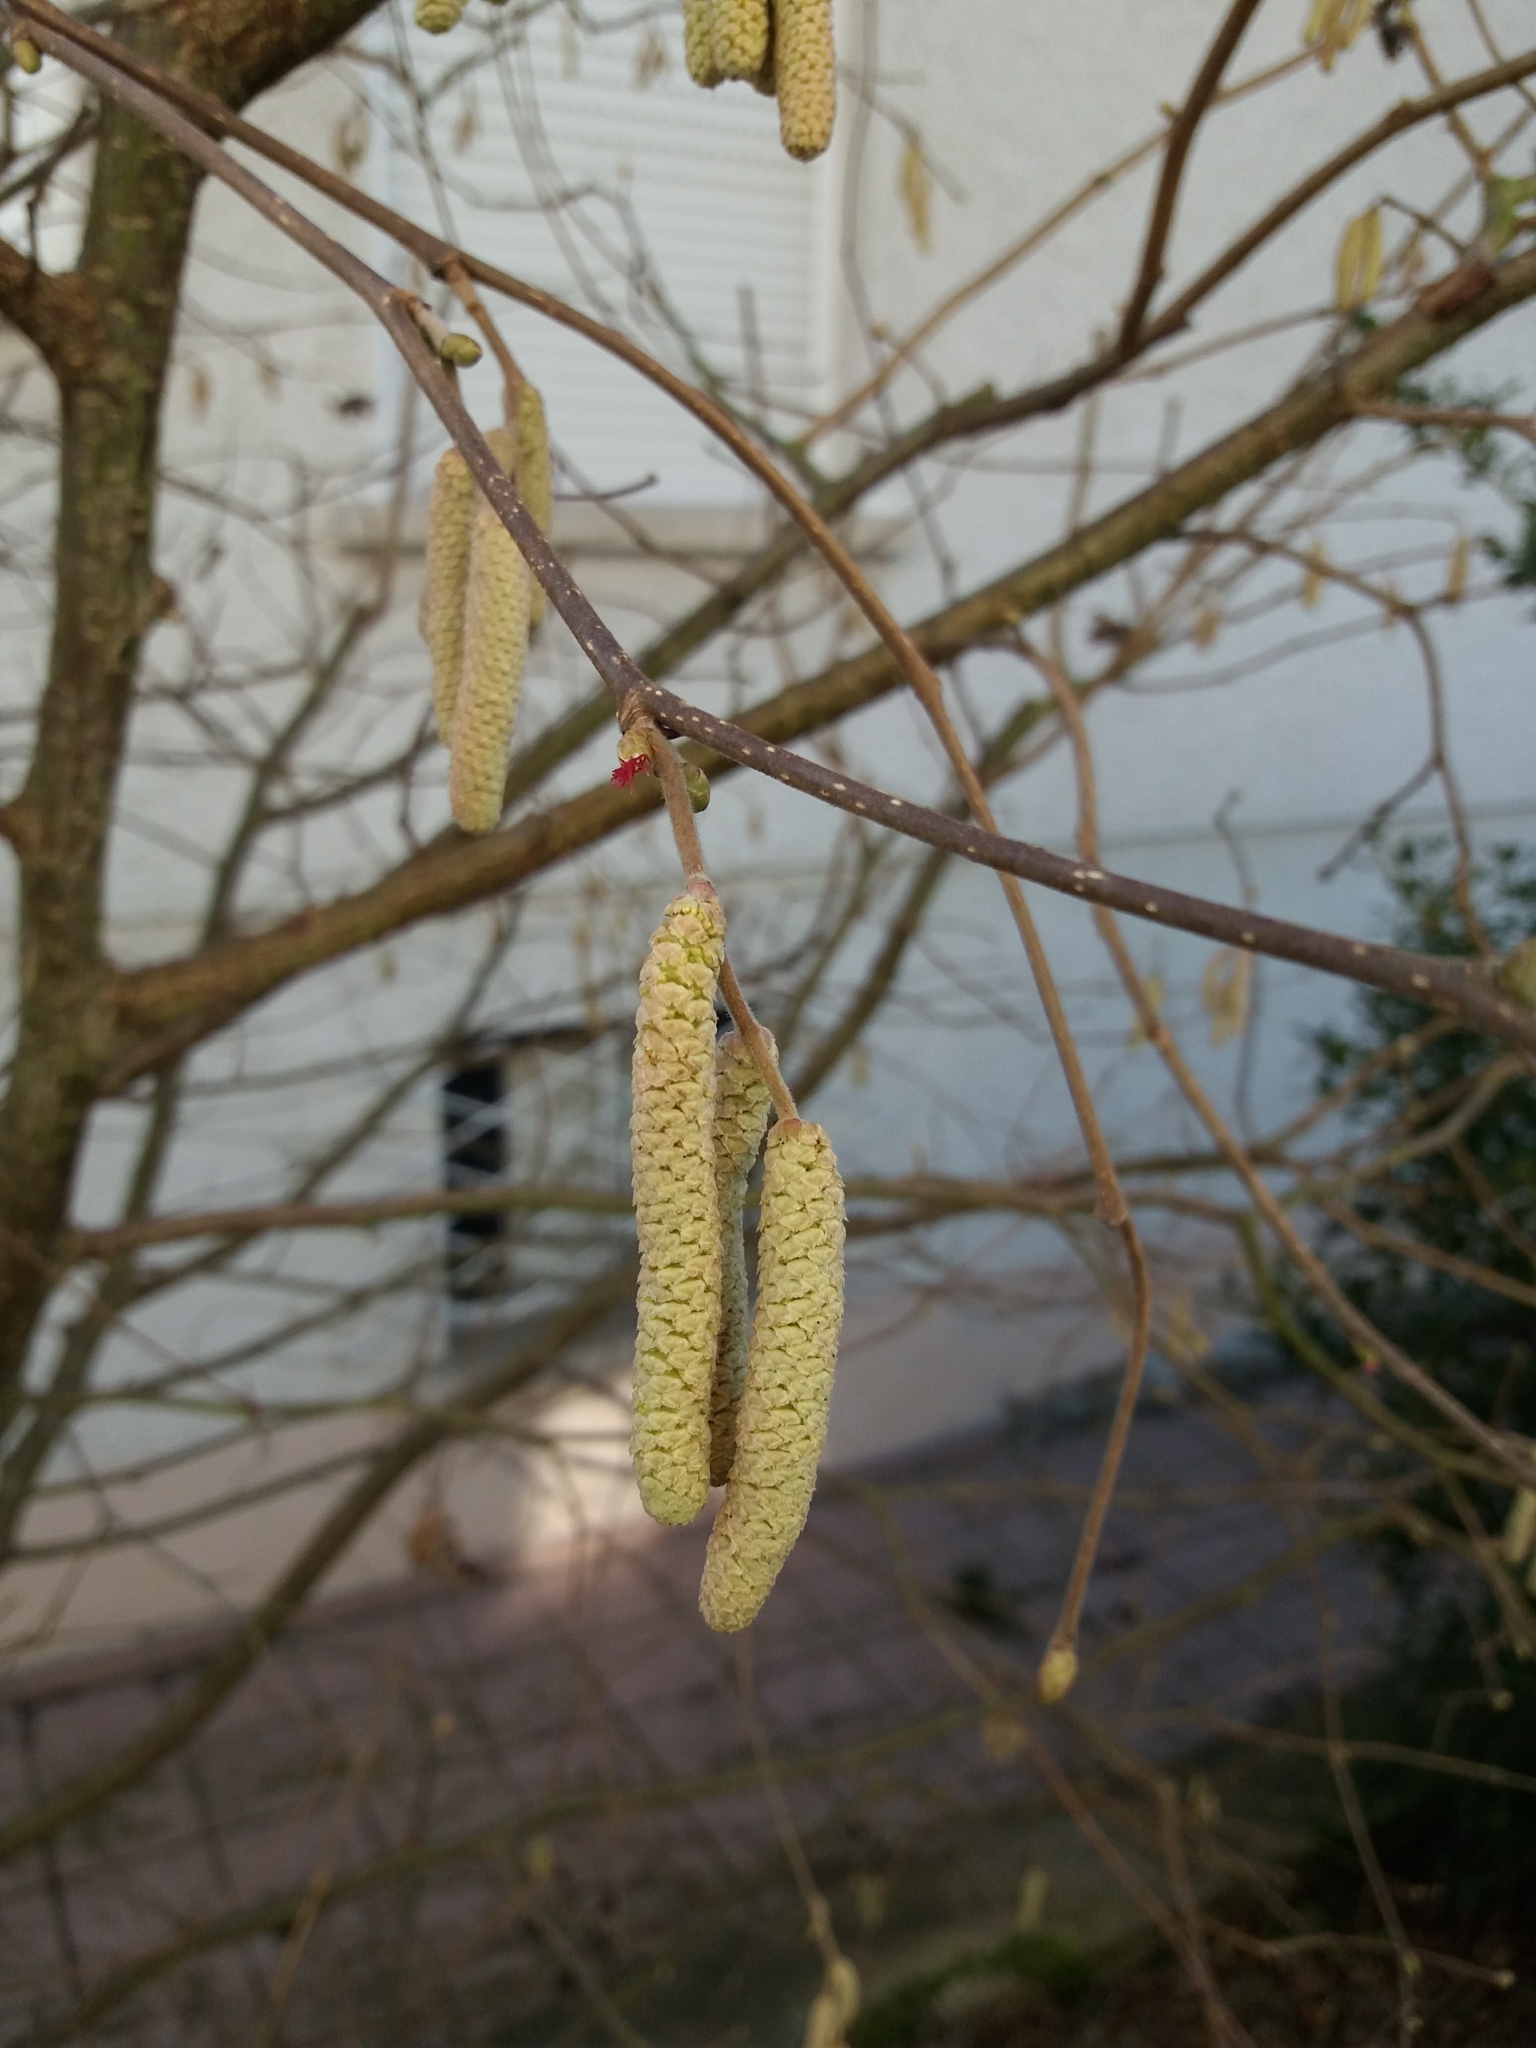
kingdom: Plantae
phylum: Tracheophyta
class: Magnoliopsida
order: Fagales
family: Betulaceae
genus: Corylus
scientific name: Corylus avellana
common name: European hazel
